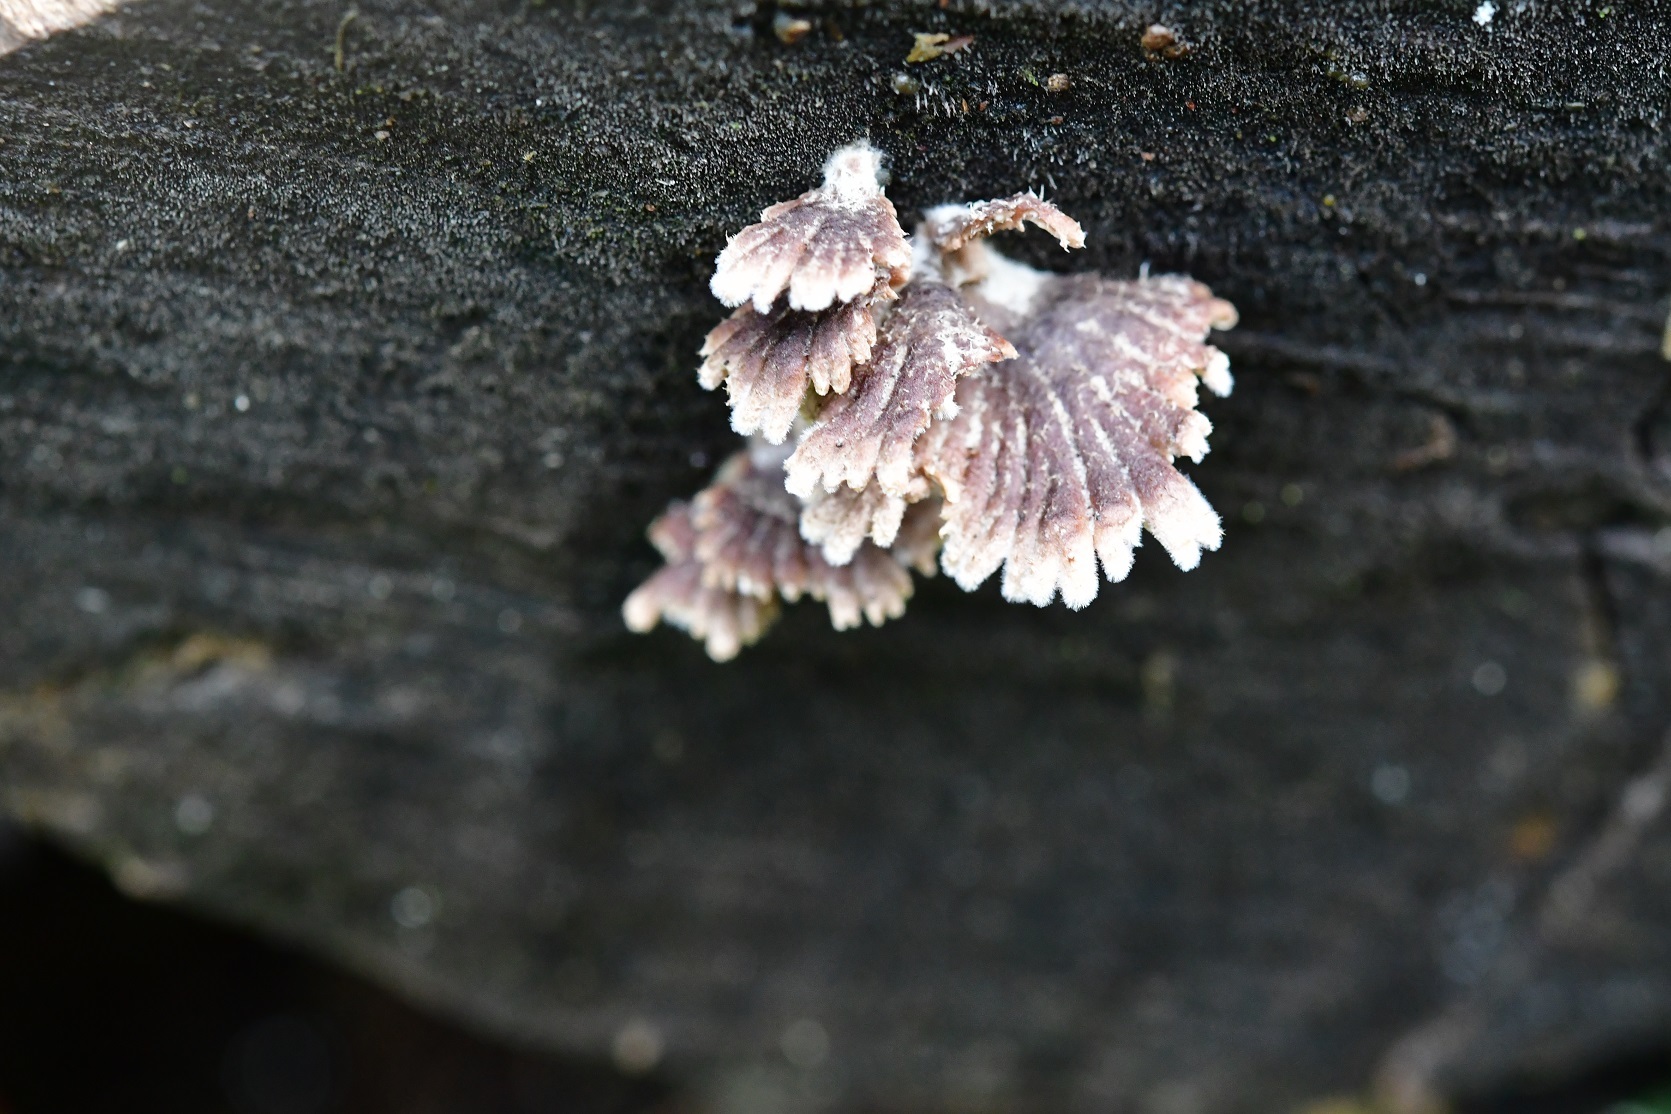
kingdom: Fungi
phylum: Basidiomycota
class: Agaricomycetes
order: Agaricales
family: Schizophyllaceae
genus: Schizophyllum
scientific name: Schizophyllum umbrinum
